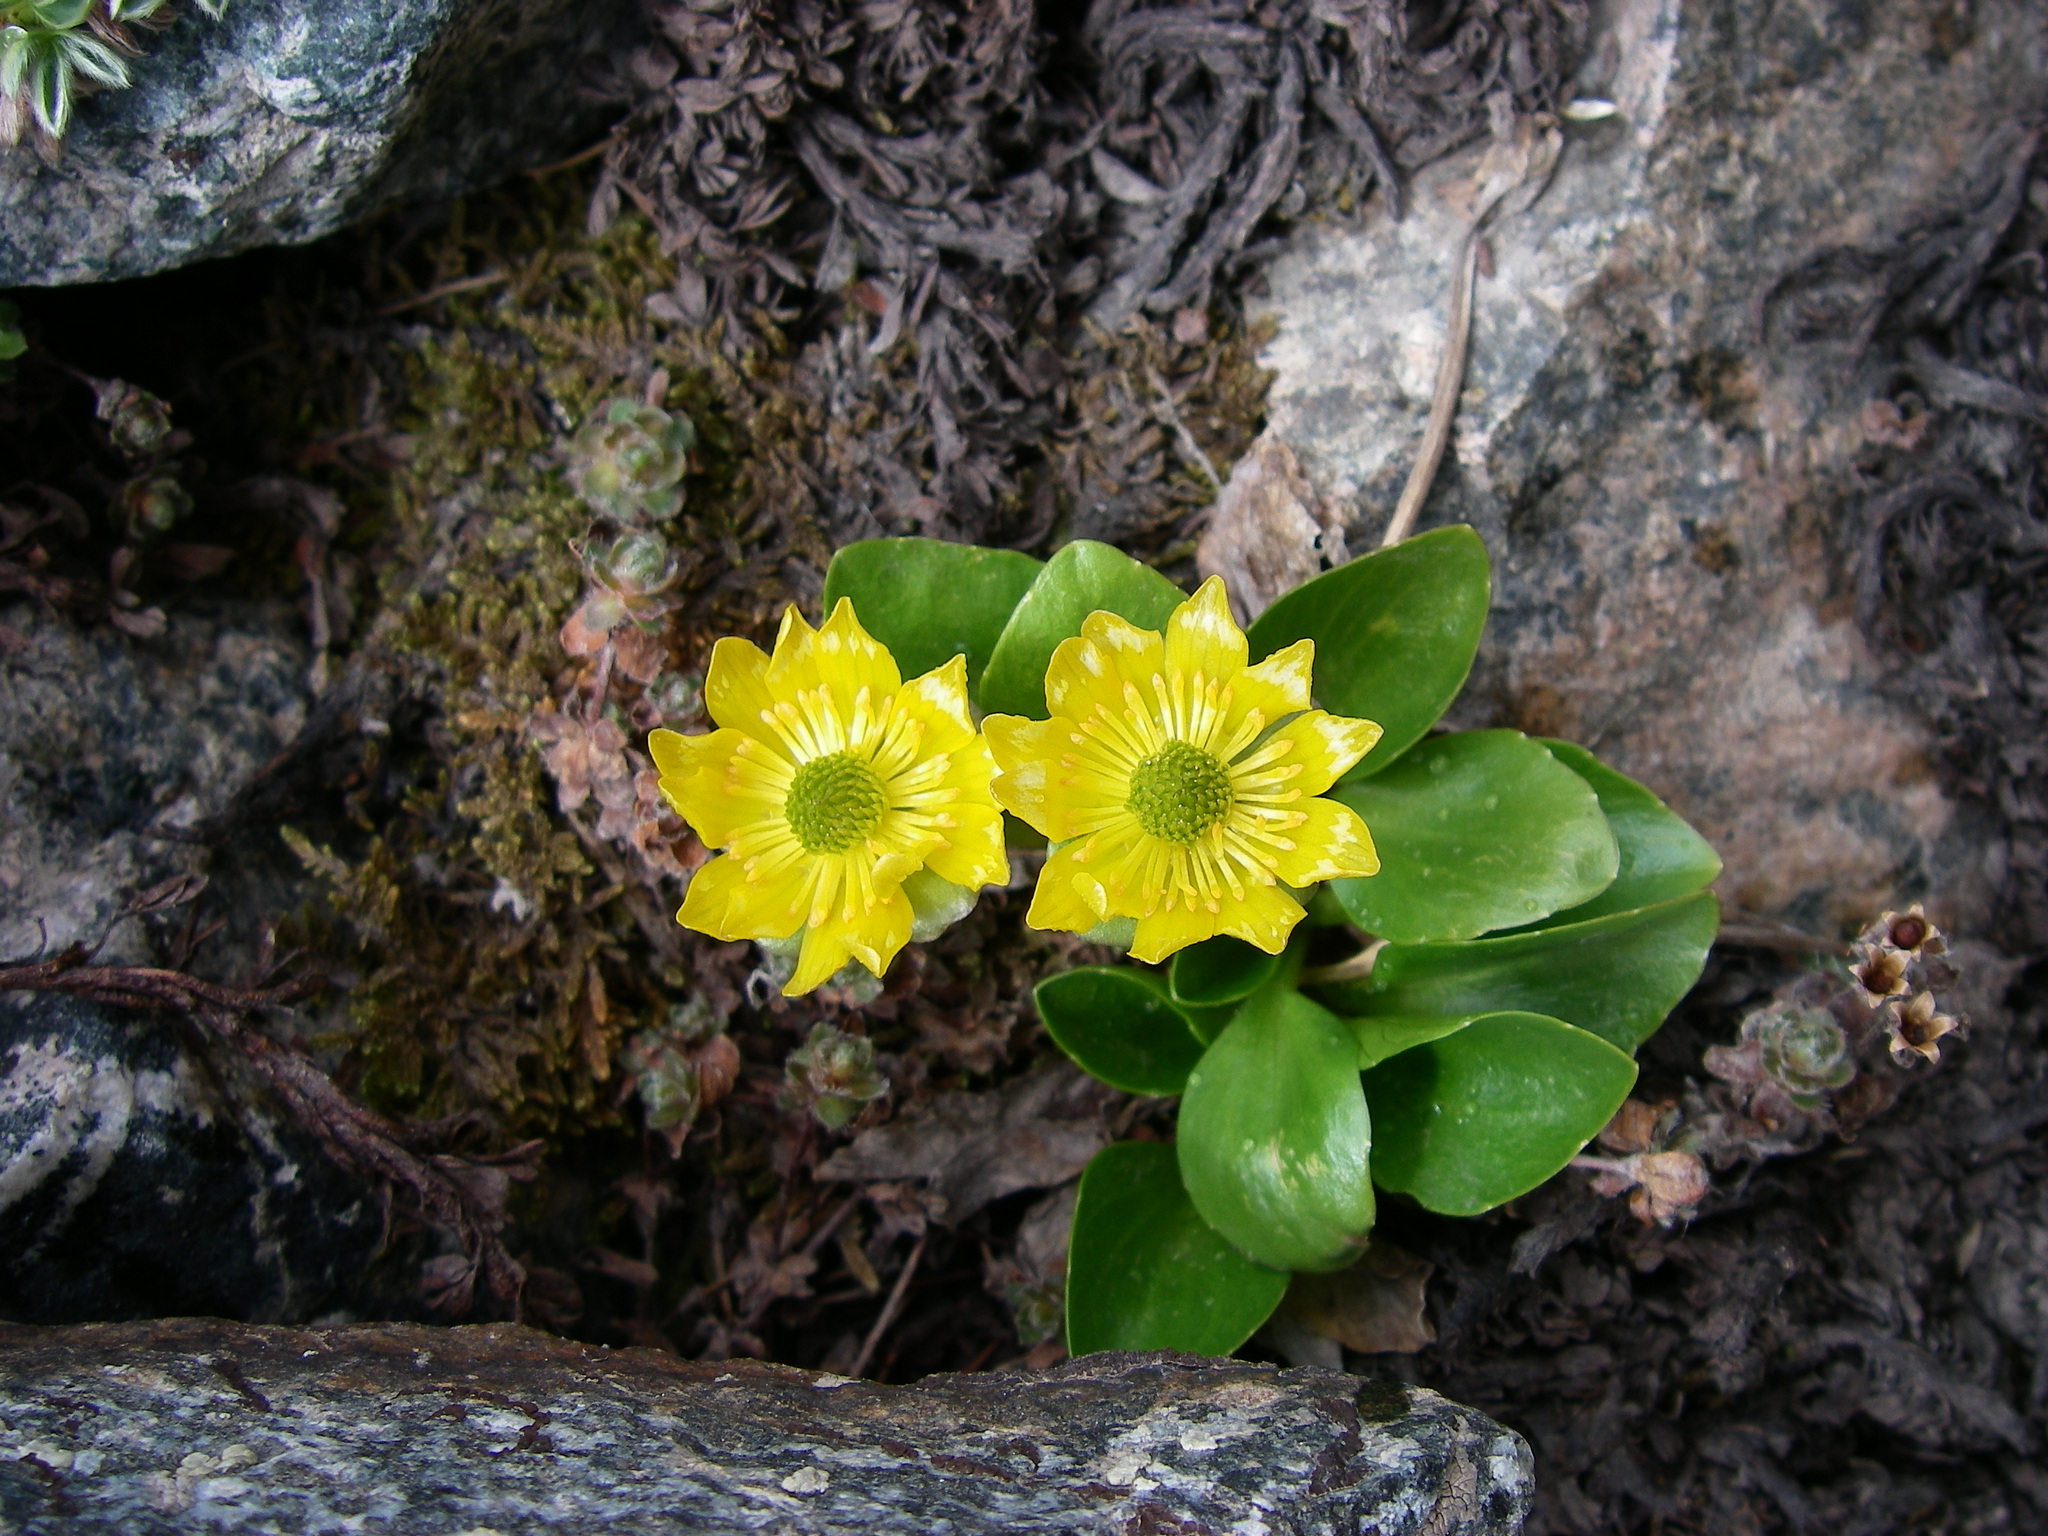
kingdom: Plantae
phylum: Tracheophyta
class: Magnoliopsida
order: Ranunculales
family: Ranunculaceae
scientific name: Ranunculaceae
